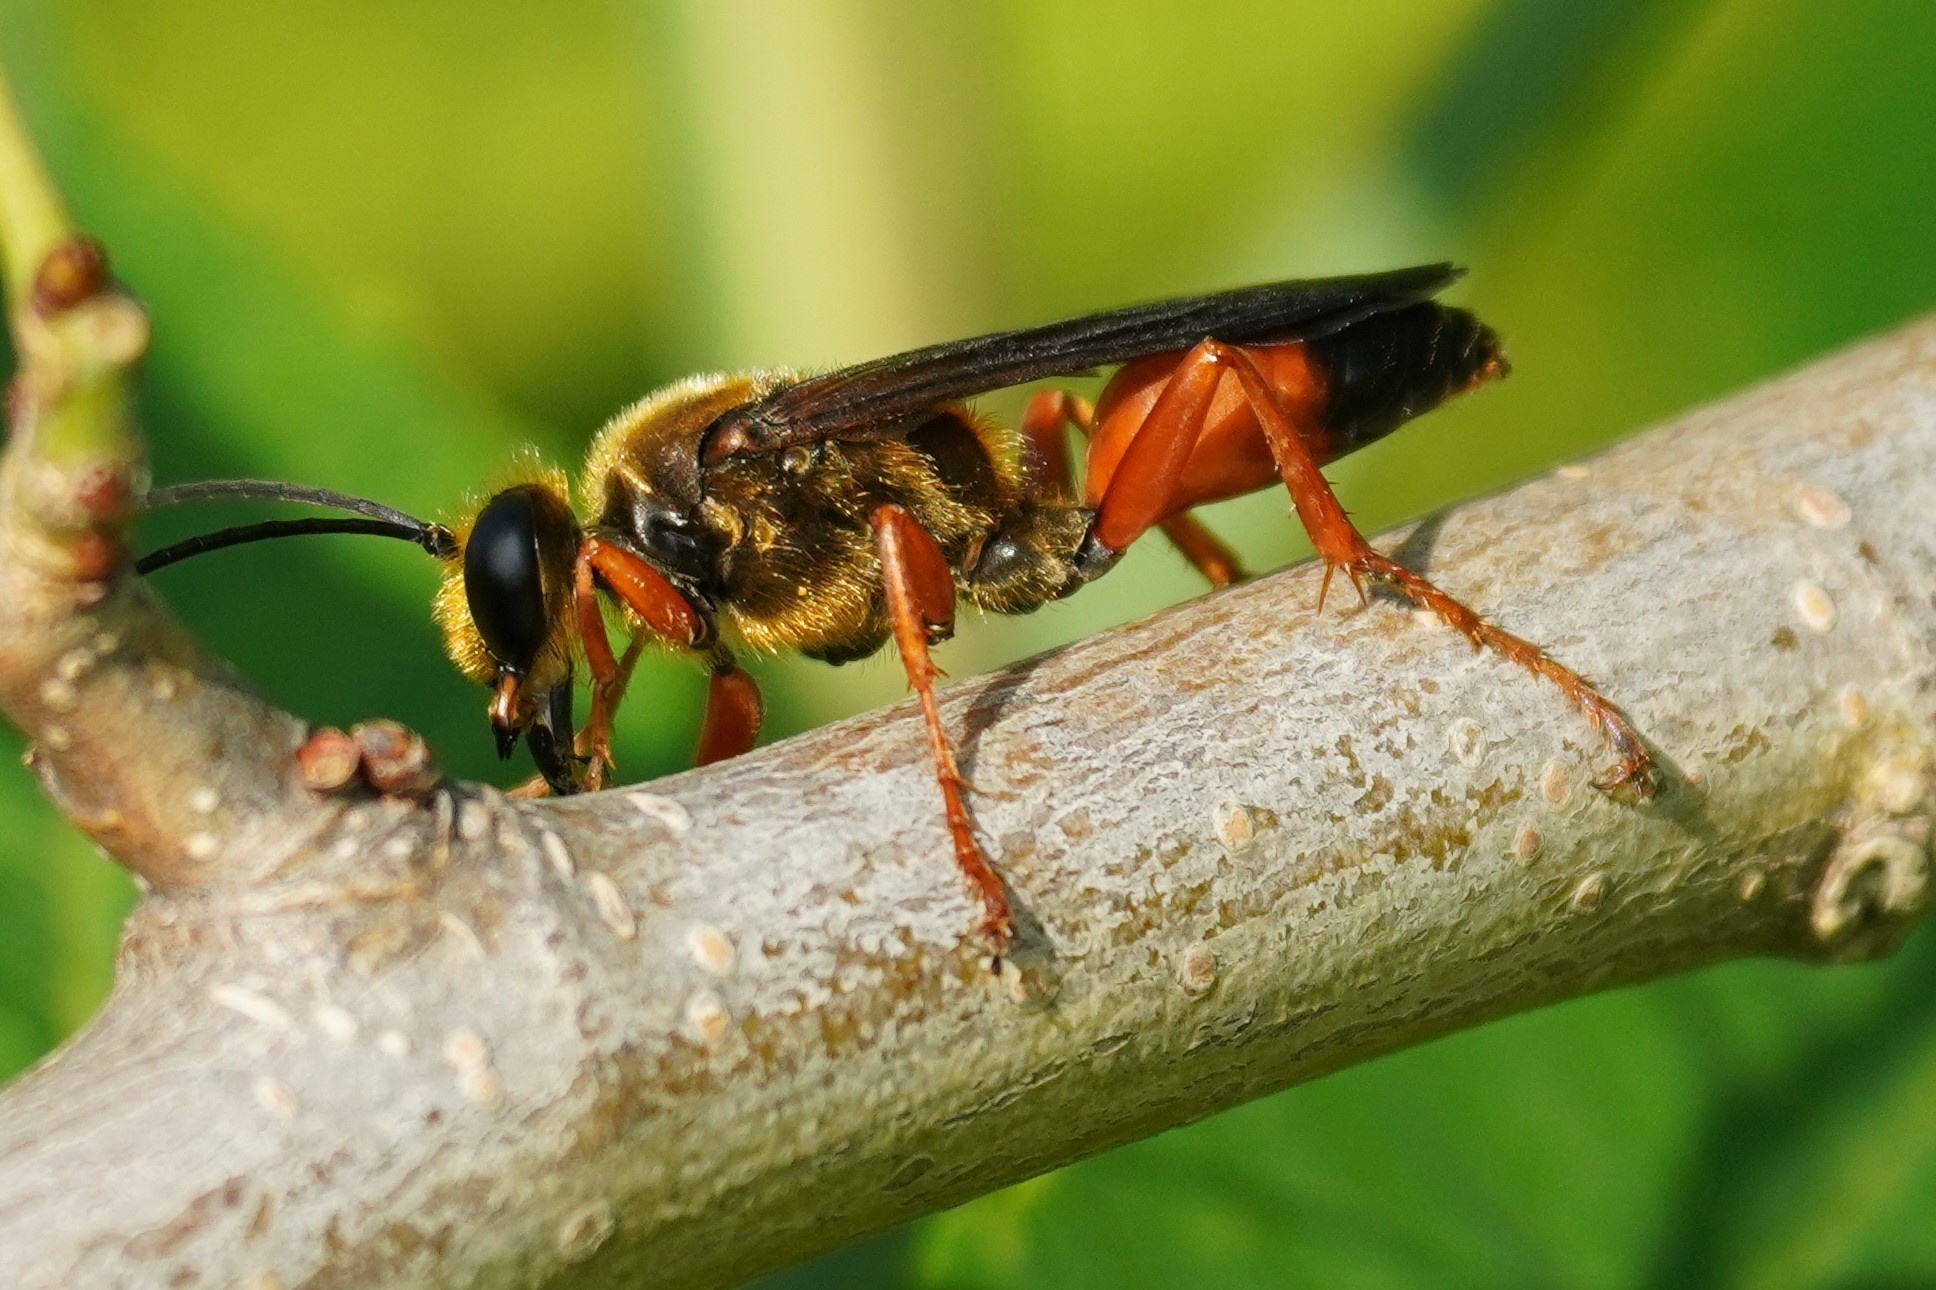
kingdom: Animalia
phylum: Arthropoda
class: Insecta
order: Hymenoptera
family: Sphecidae
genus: Sphex
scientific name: Sphex ichneumoneus
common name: Great golden digger wasp
